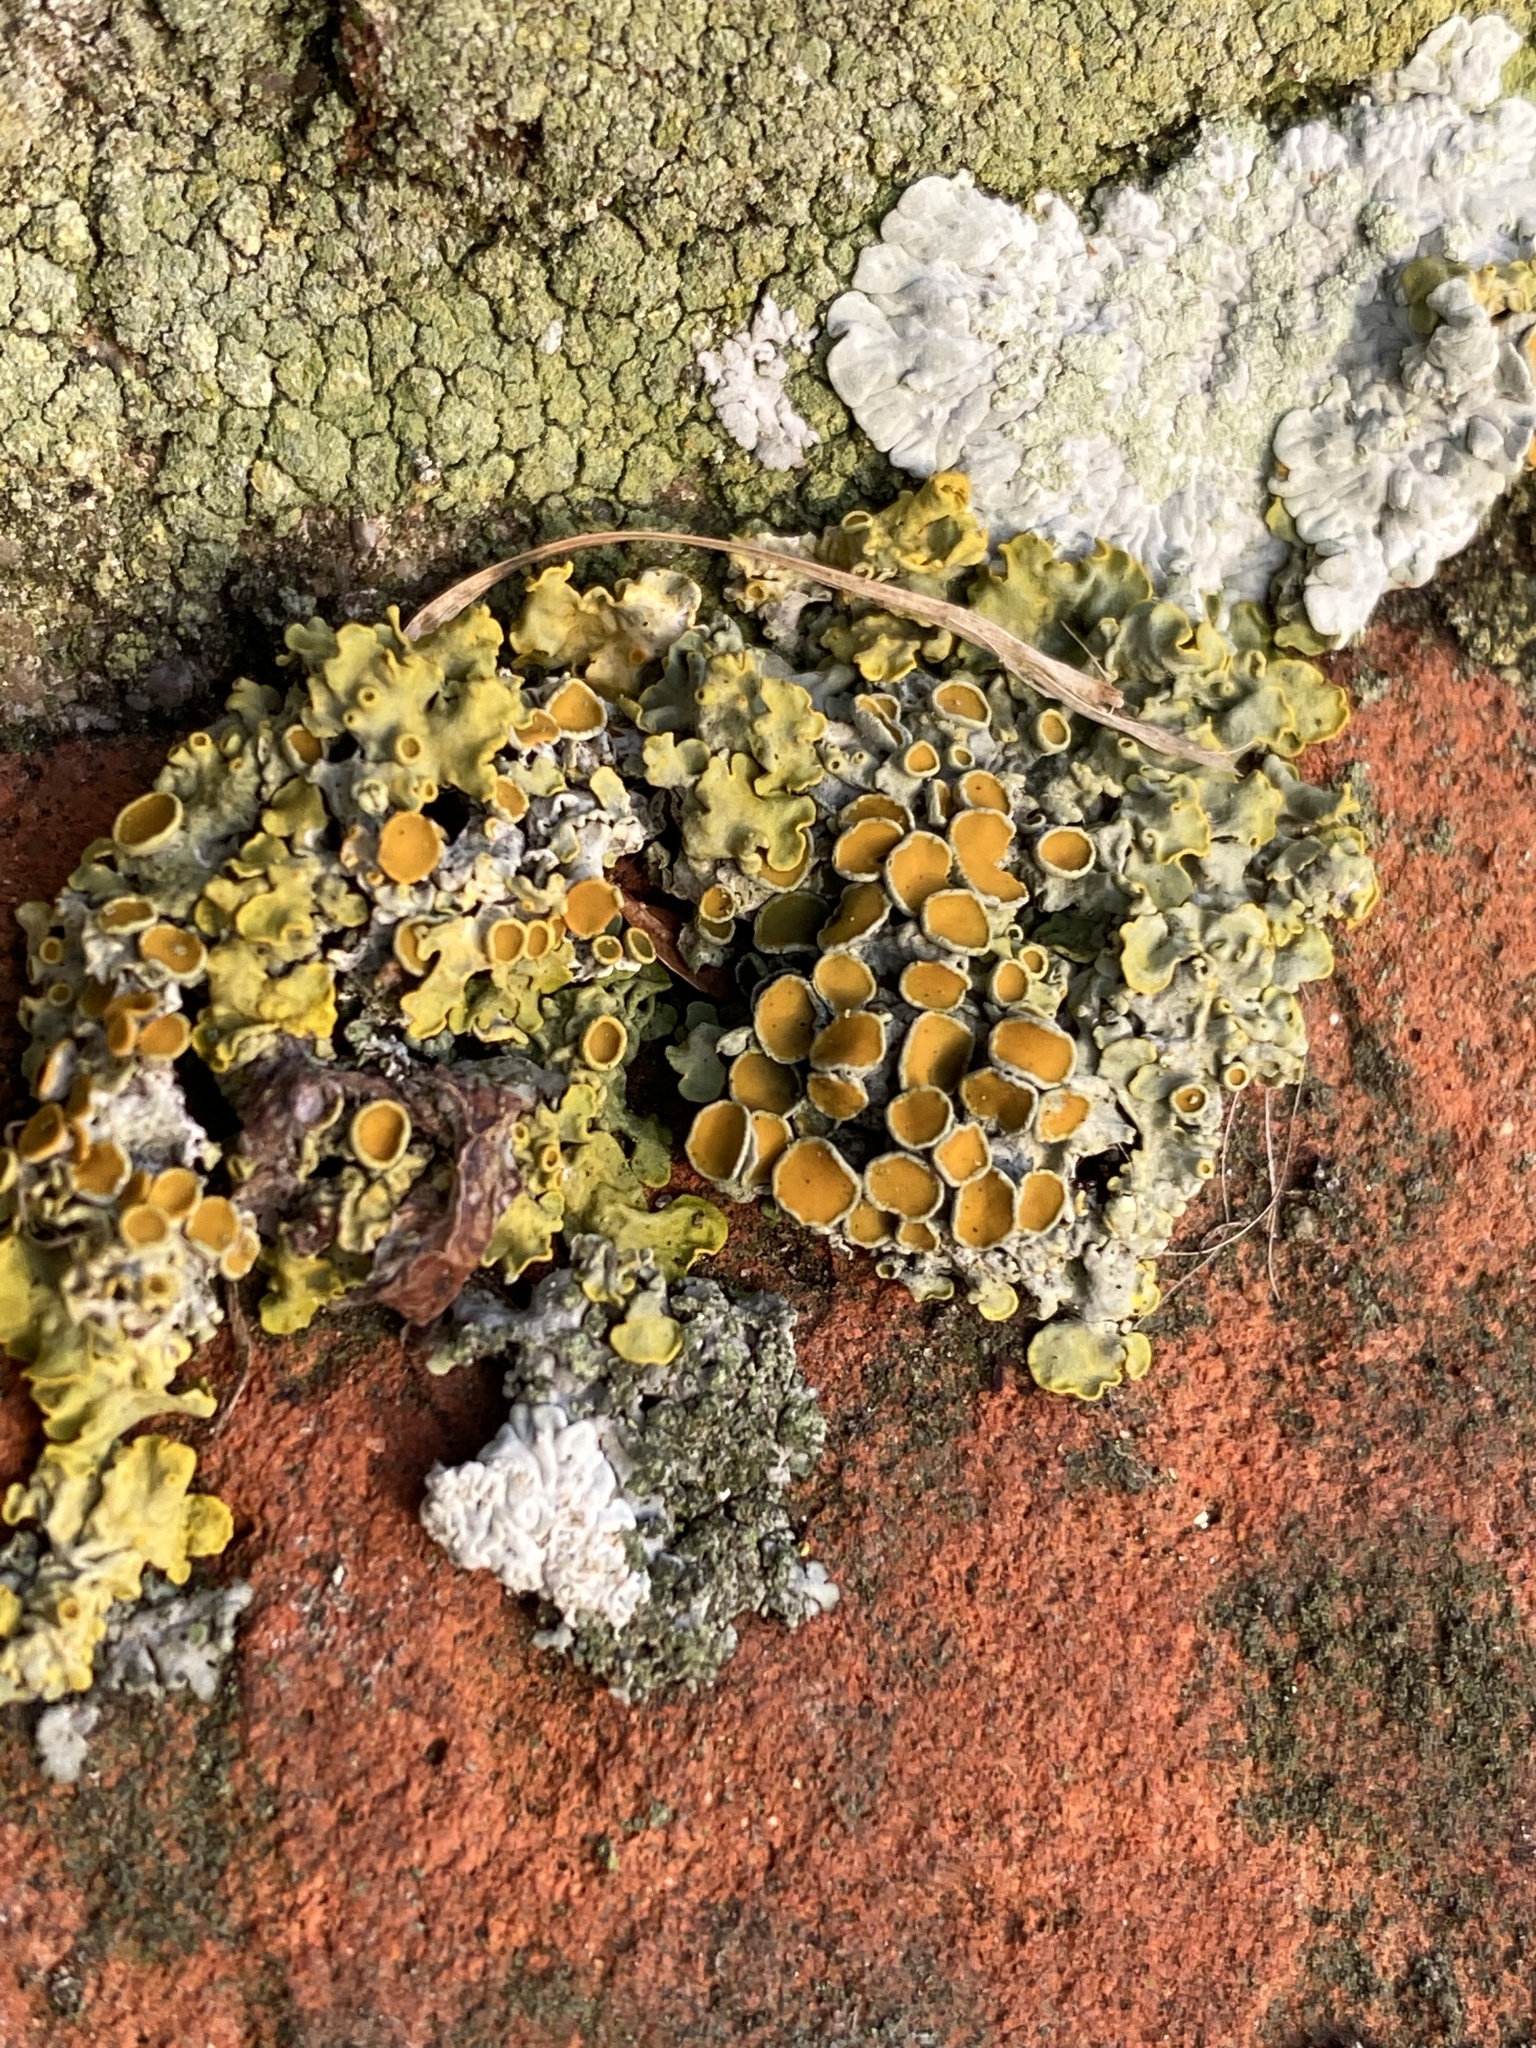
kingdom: Fungi
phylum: Ascomycota
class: Lecanoromycetes
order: Teloschistales
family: Teloschistaceae
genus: Xanthoria
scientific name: Xanthoria parietina
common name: Common orange lichen
